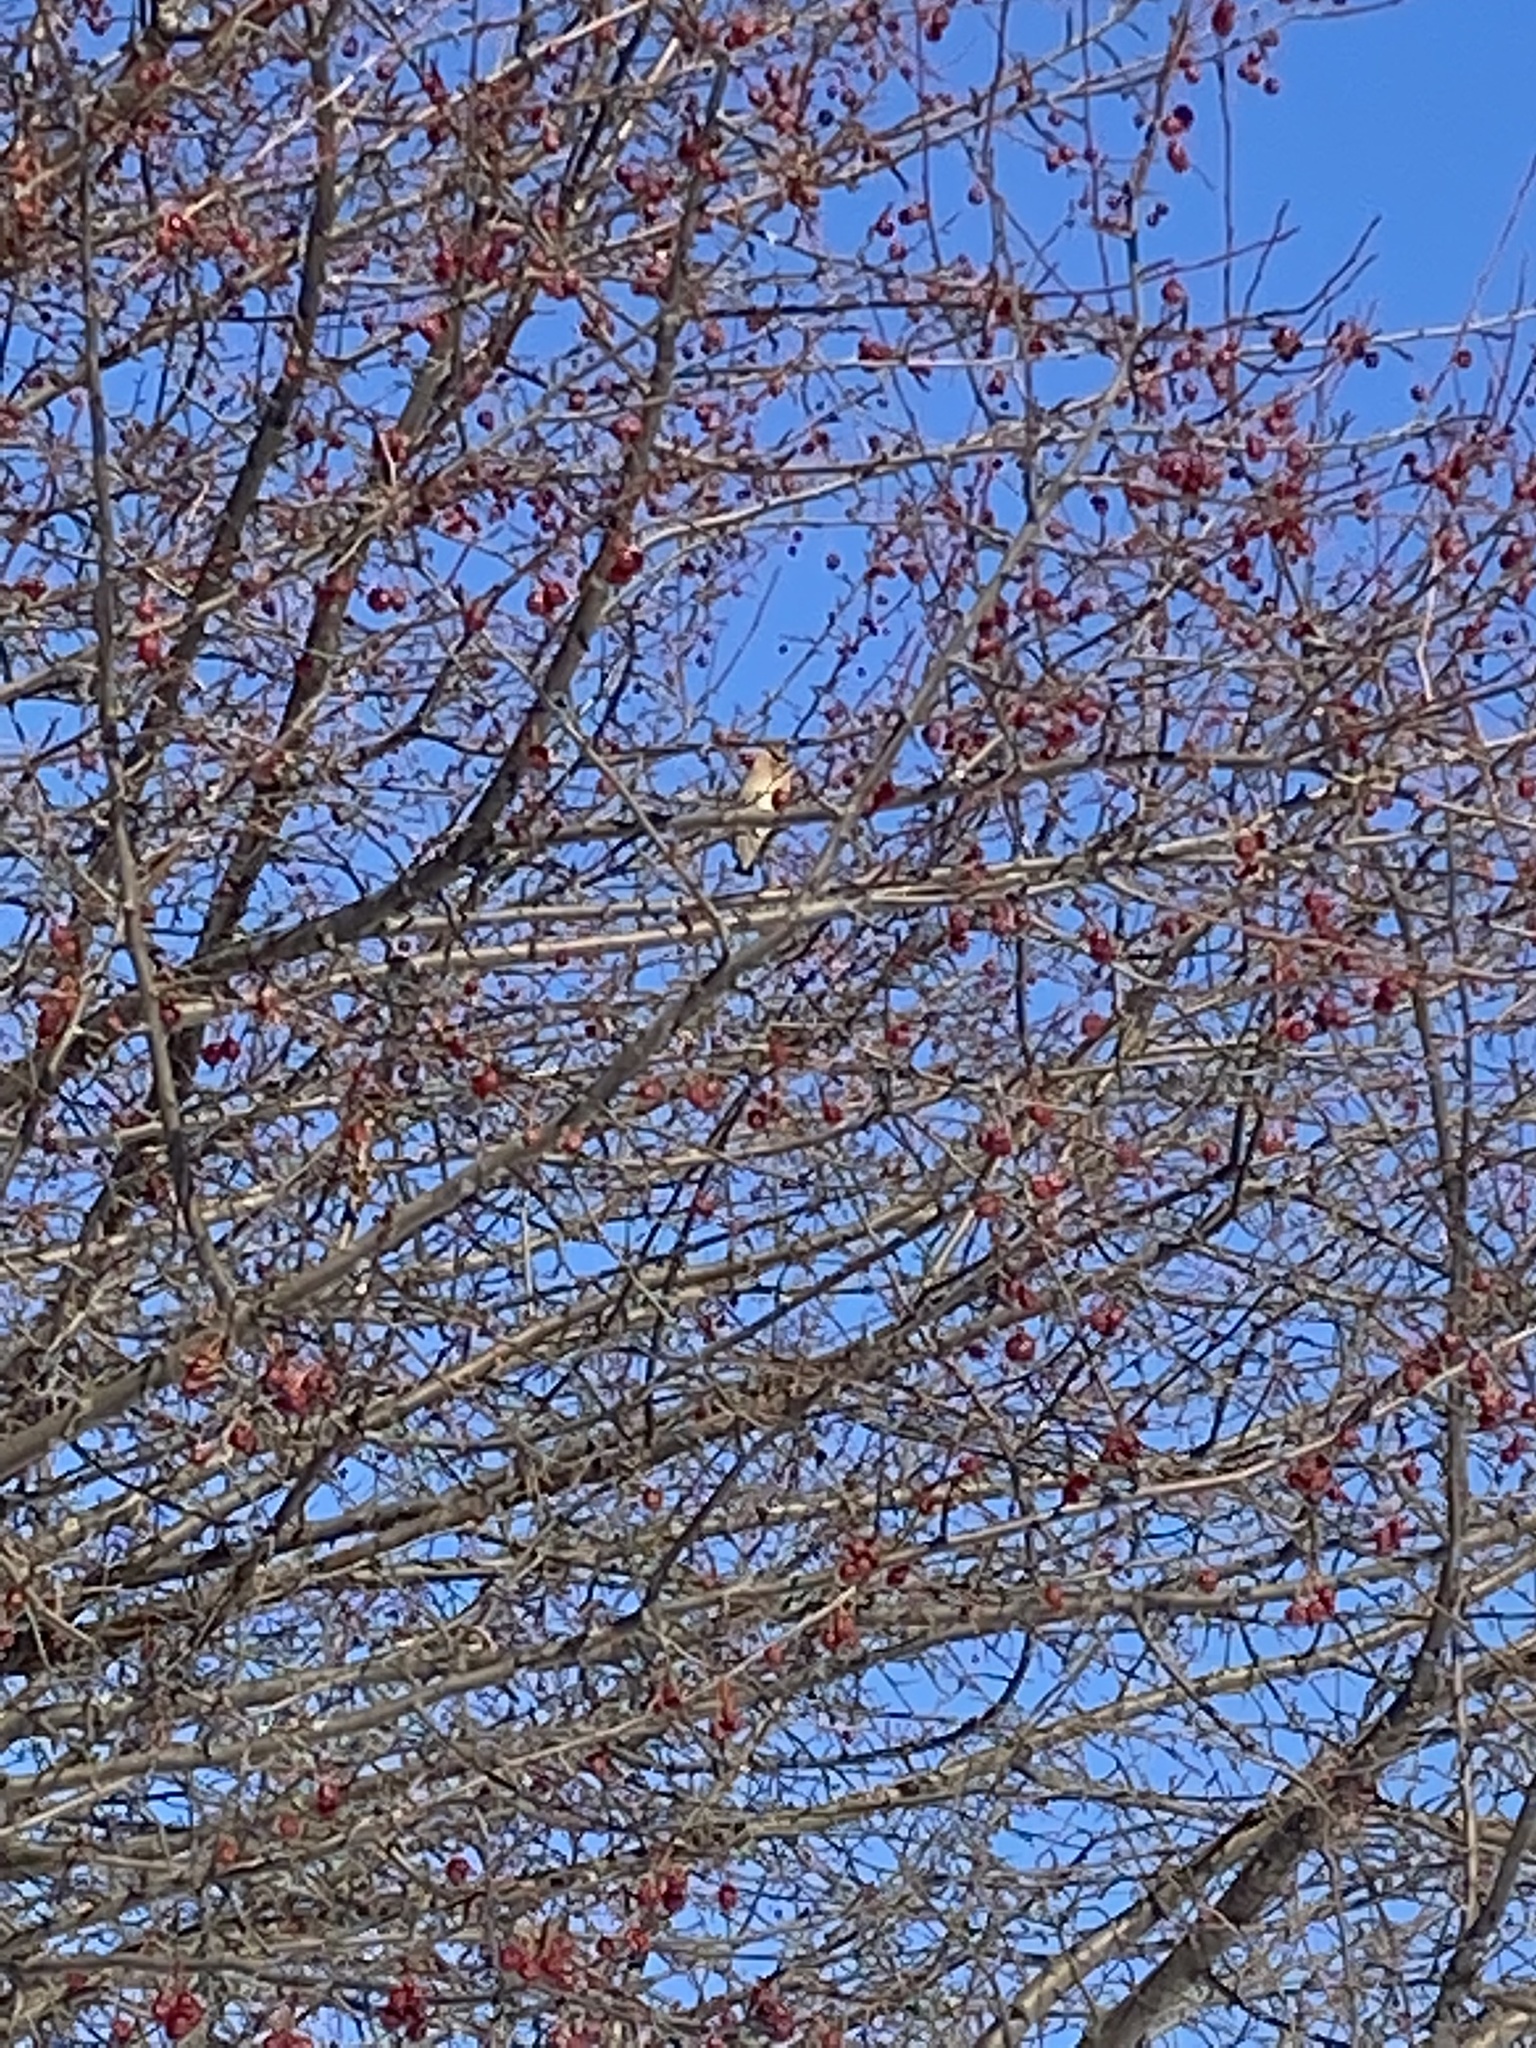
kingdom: Animalia
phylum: Chordata
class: Aves
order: Passeriformes
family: Bombycillidae
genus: Bombycilla
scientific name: Bombycilla cedrorum
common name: Cedar waxwing
